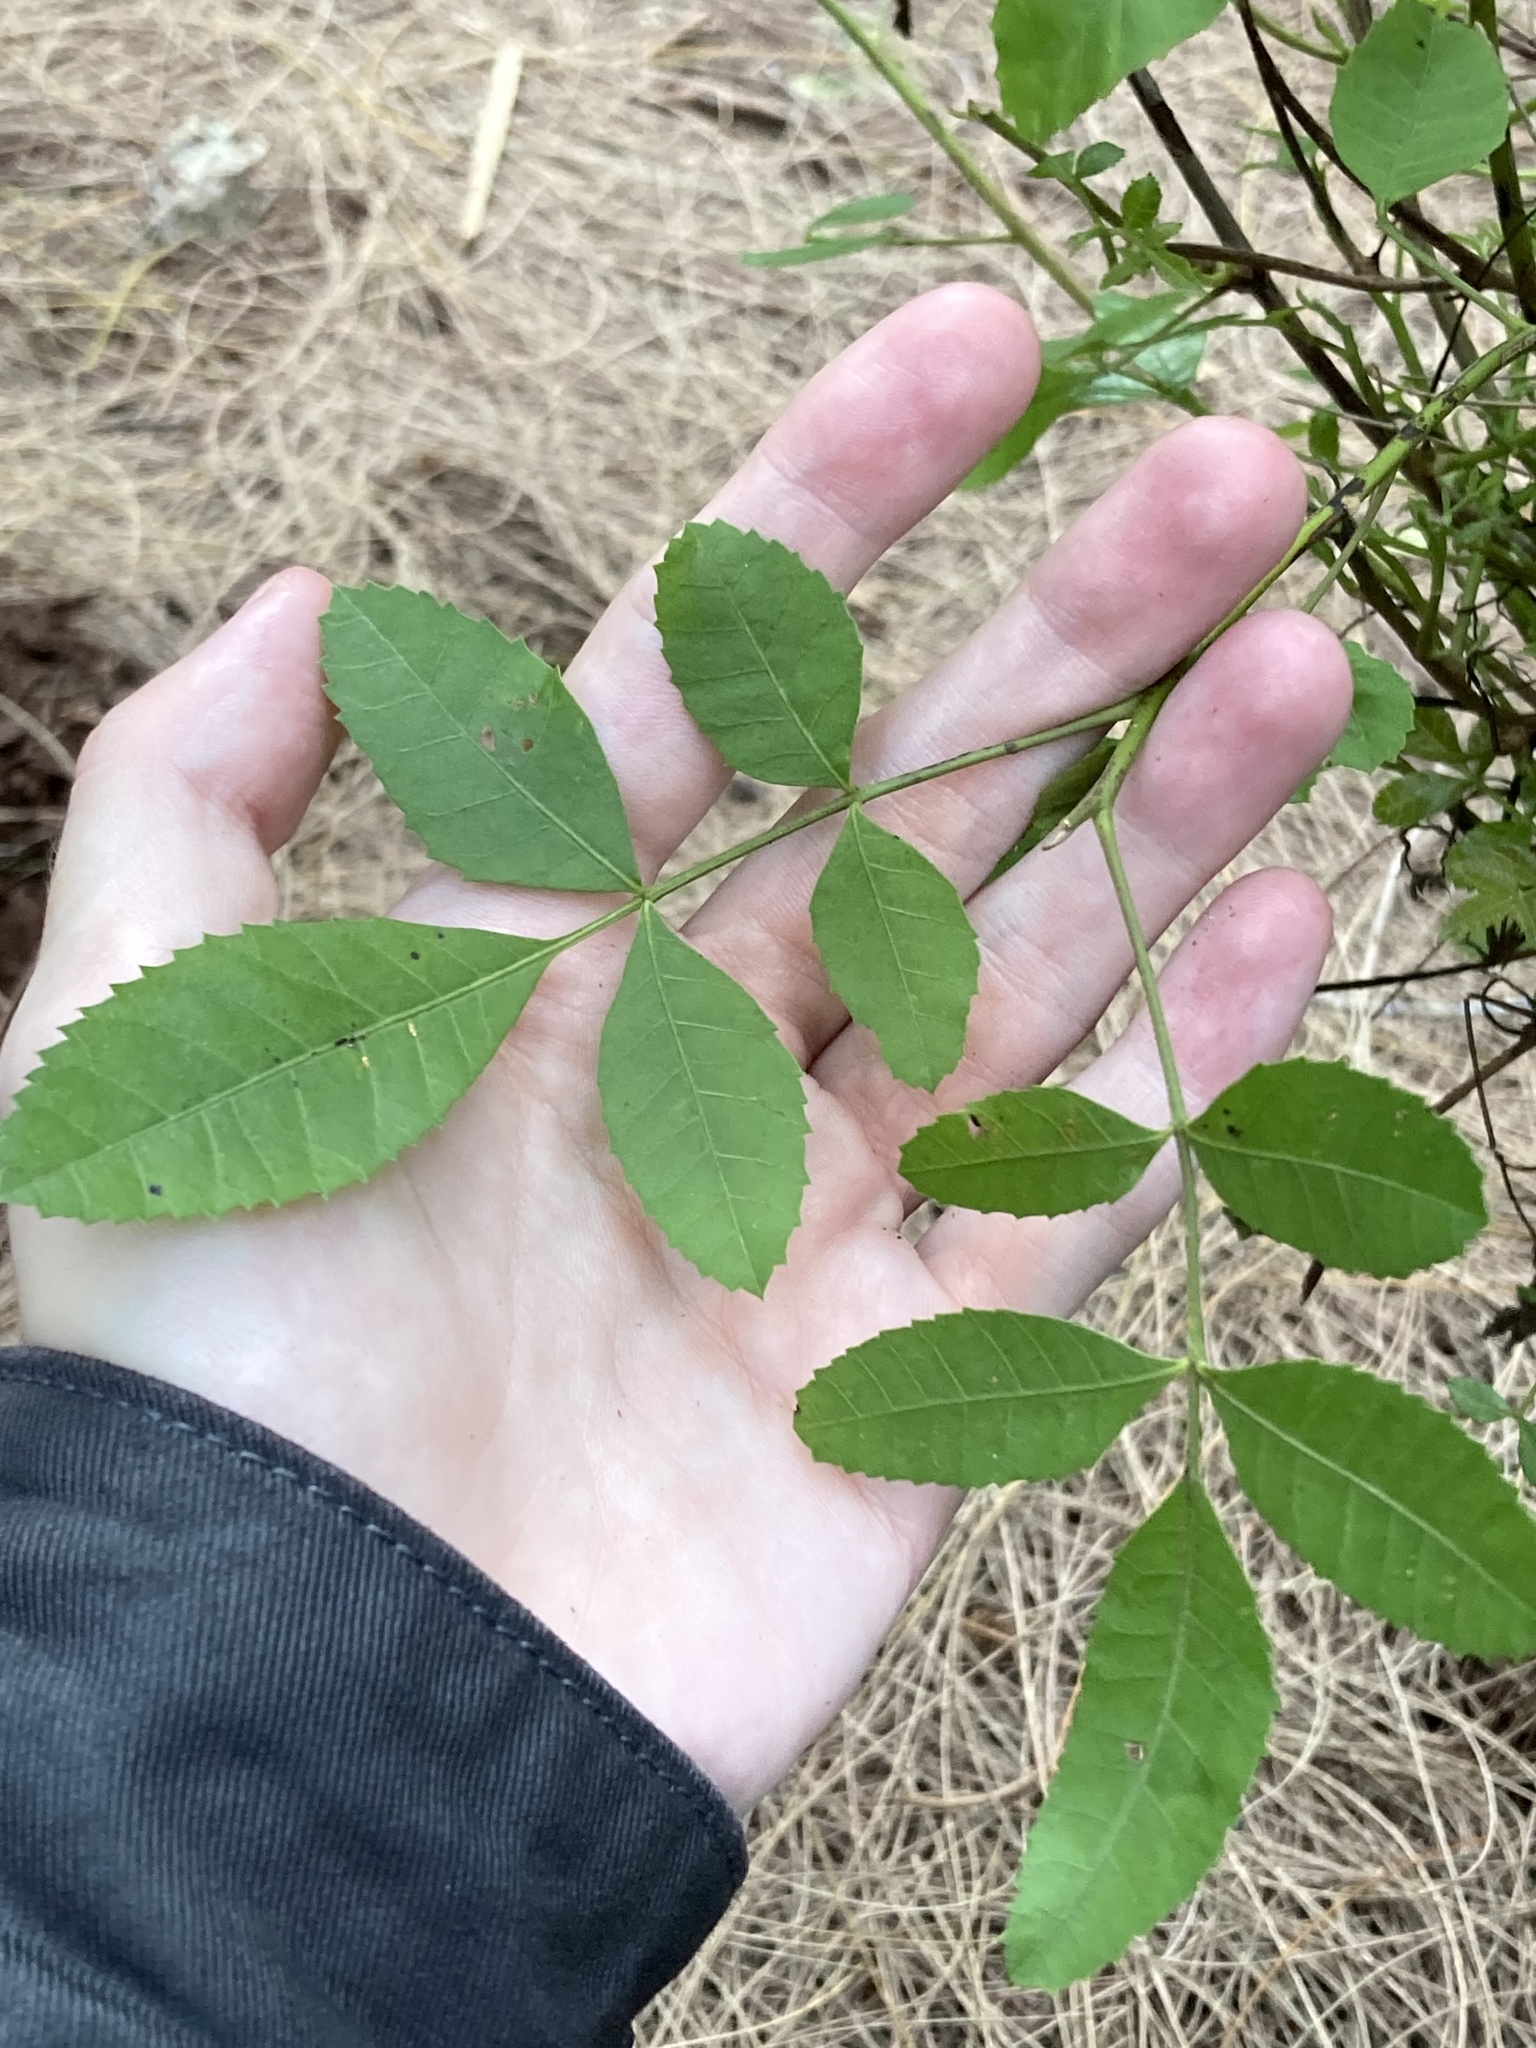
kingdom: Plantae
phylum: Tracheophyta
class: Magnoliopsida
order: Sapindales
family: Anacardiaceae
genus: Schinus
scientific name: Schinus terebinthifolia
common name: Brazilian peppertree
